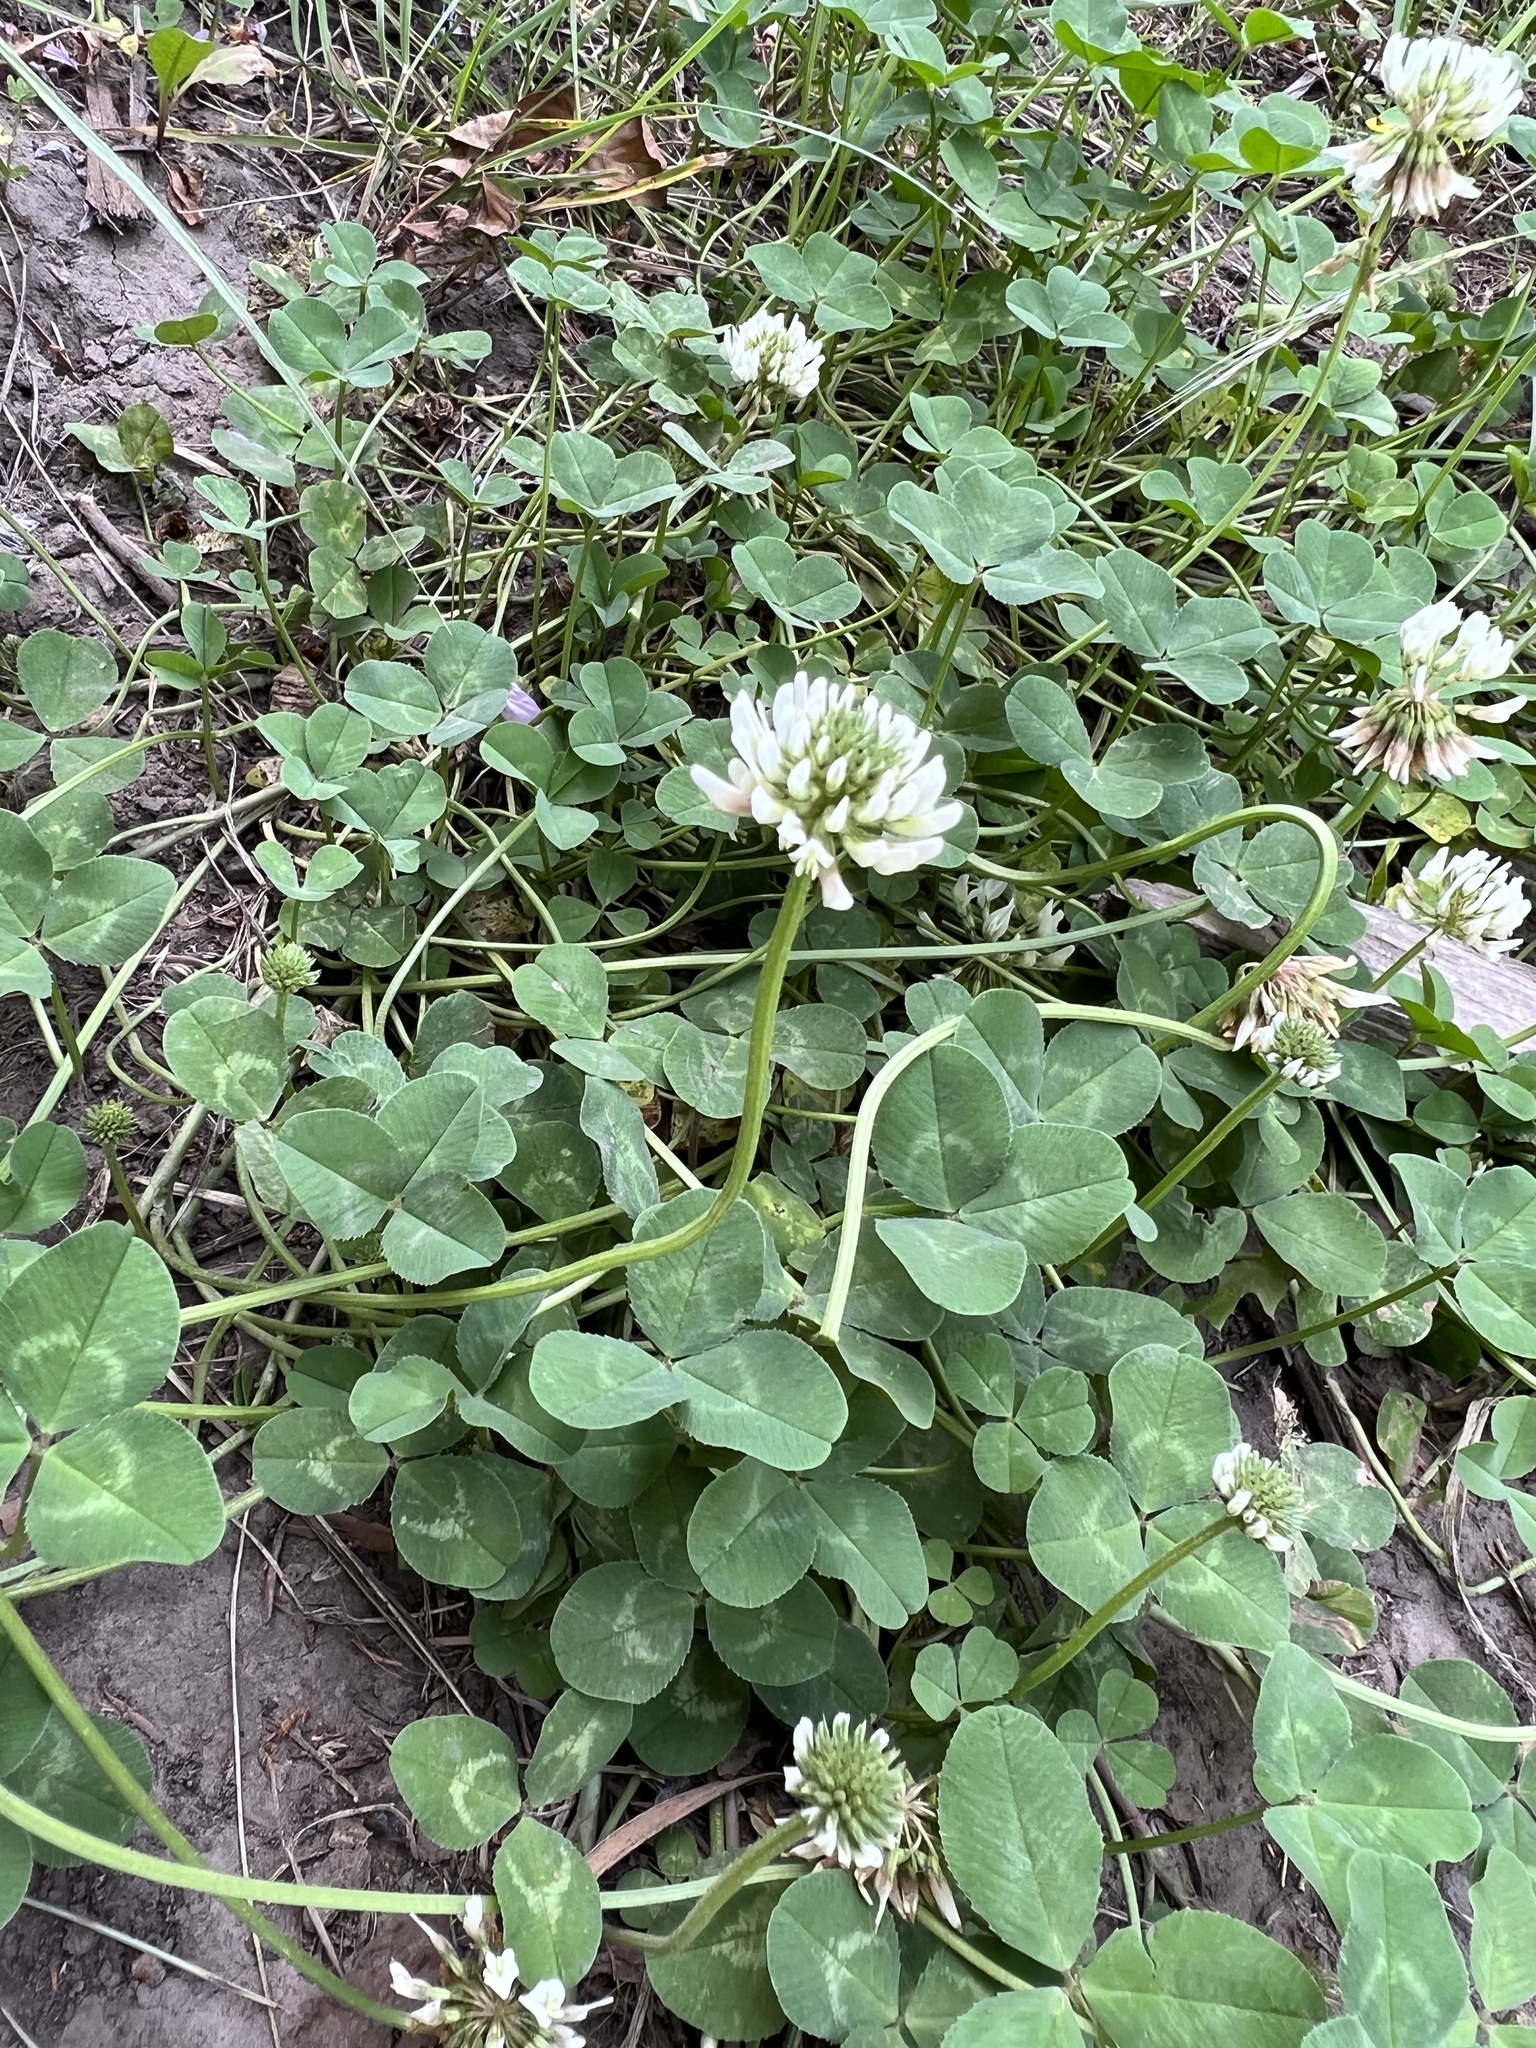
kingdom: Plantae
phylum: Tracheophyta
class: Magnoliopsida
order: Fabales
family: Fabaceae
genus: Trifolium
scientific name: Trifolium repens
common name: White clover
